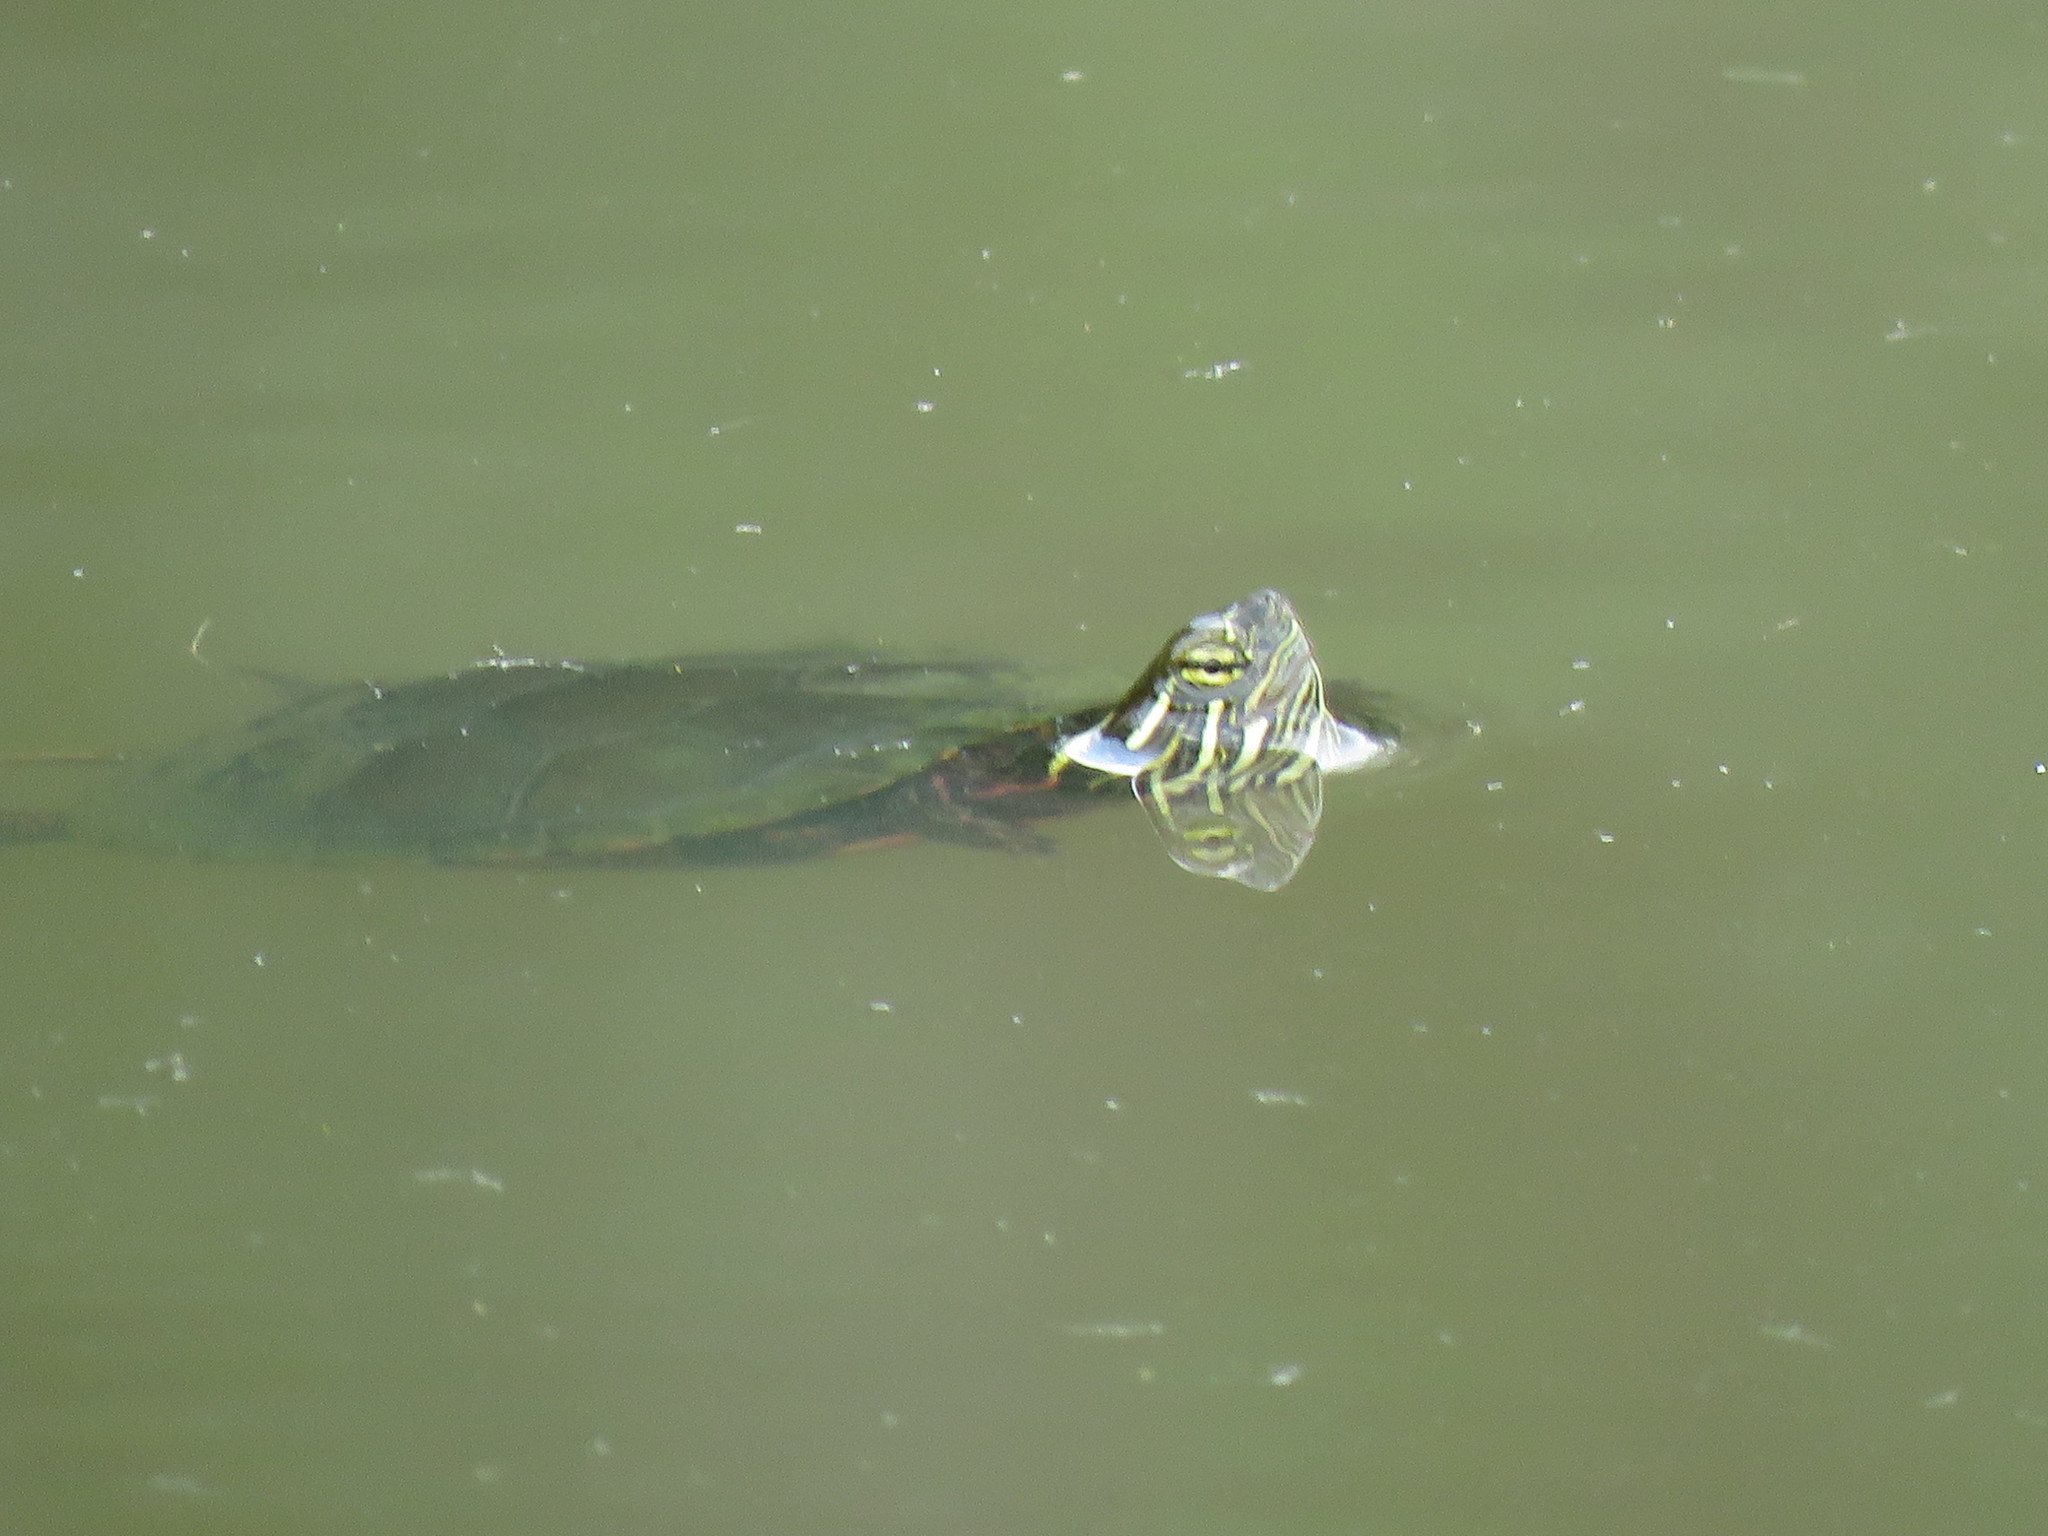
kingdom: Animalia
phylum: Chordata
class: Testudines
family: Emydidae
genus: Chrysemys
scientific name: Chrysemys picta
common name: Painted turtle
